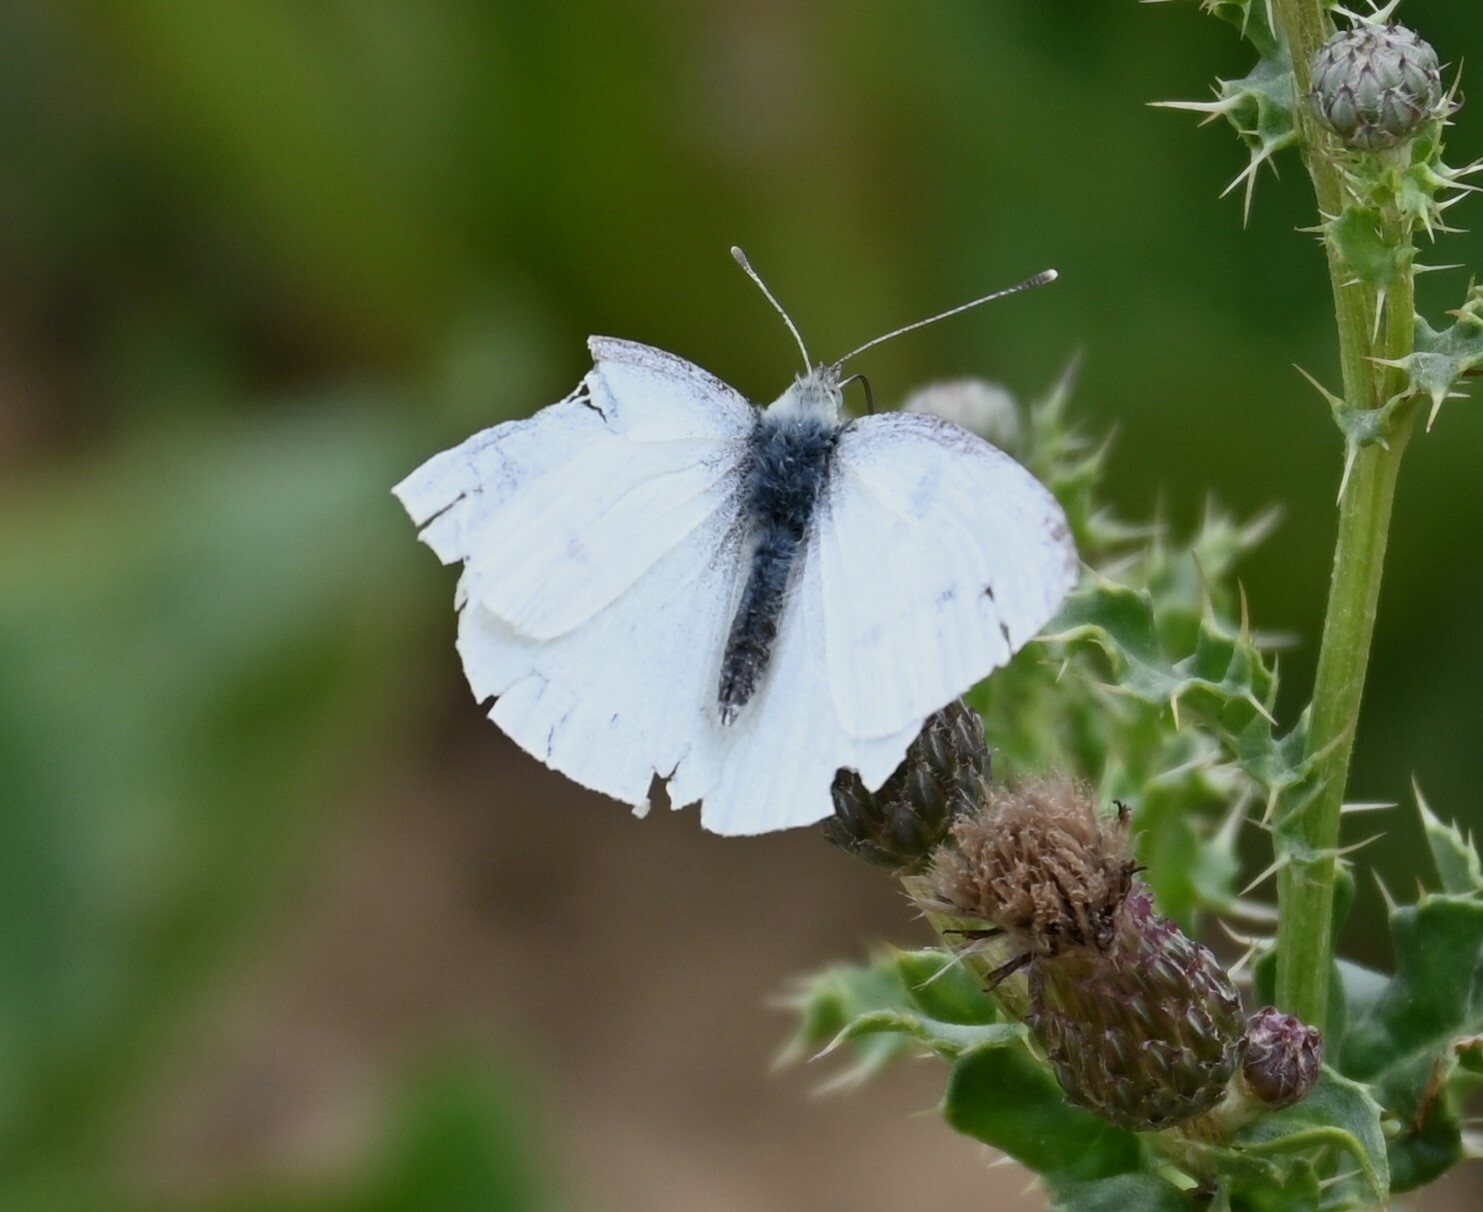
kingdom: Animalia
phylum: Arthropoda
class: Insecta
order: Lepidoptera
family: Pieridae
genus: Pieris
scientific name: Pieris rapae
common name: Small white
